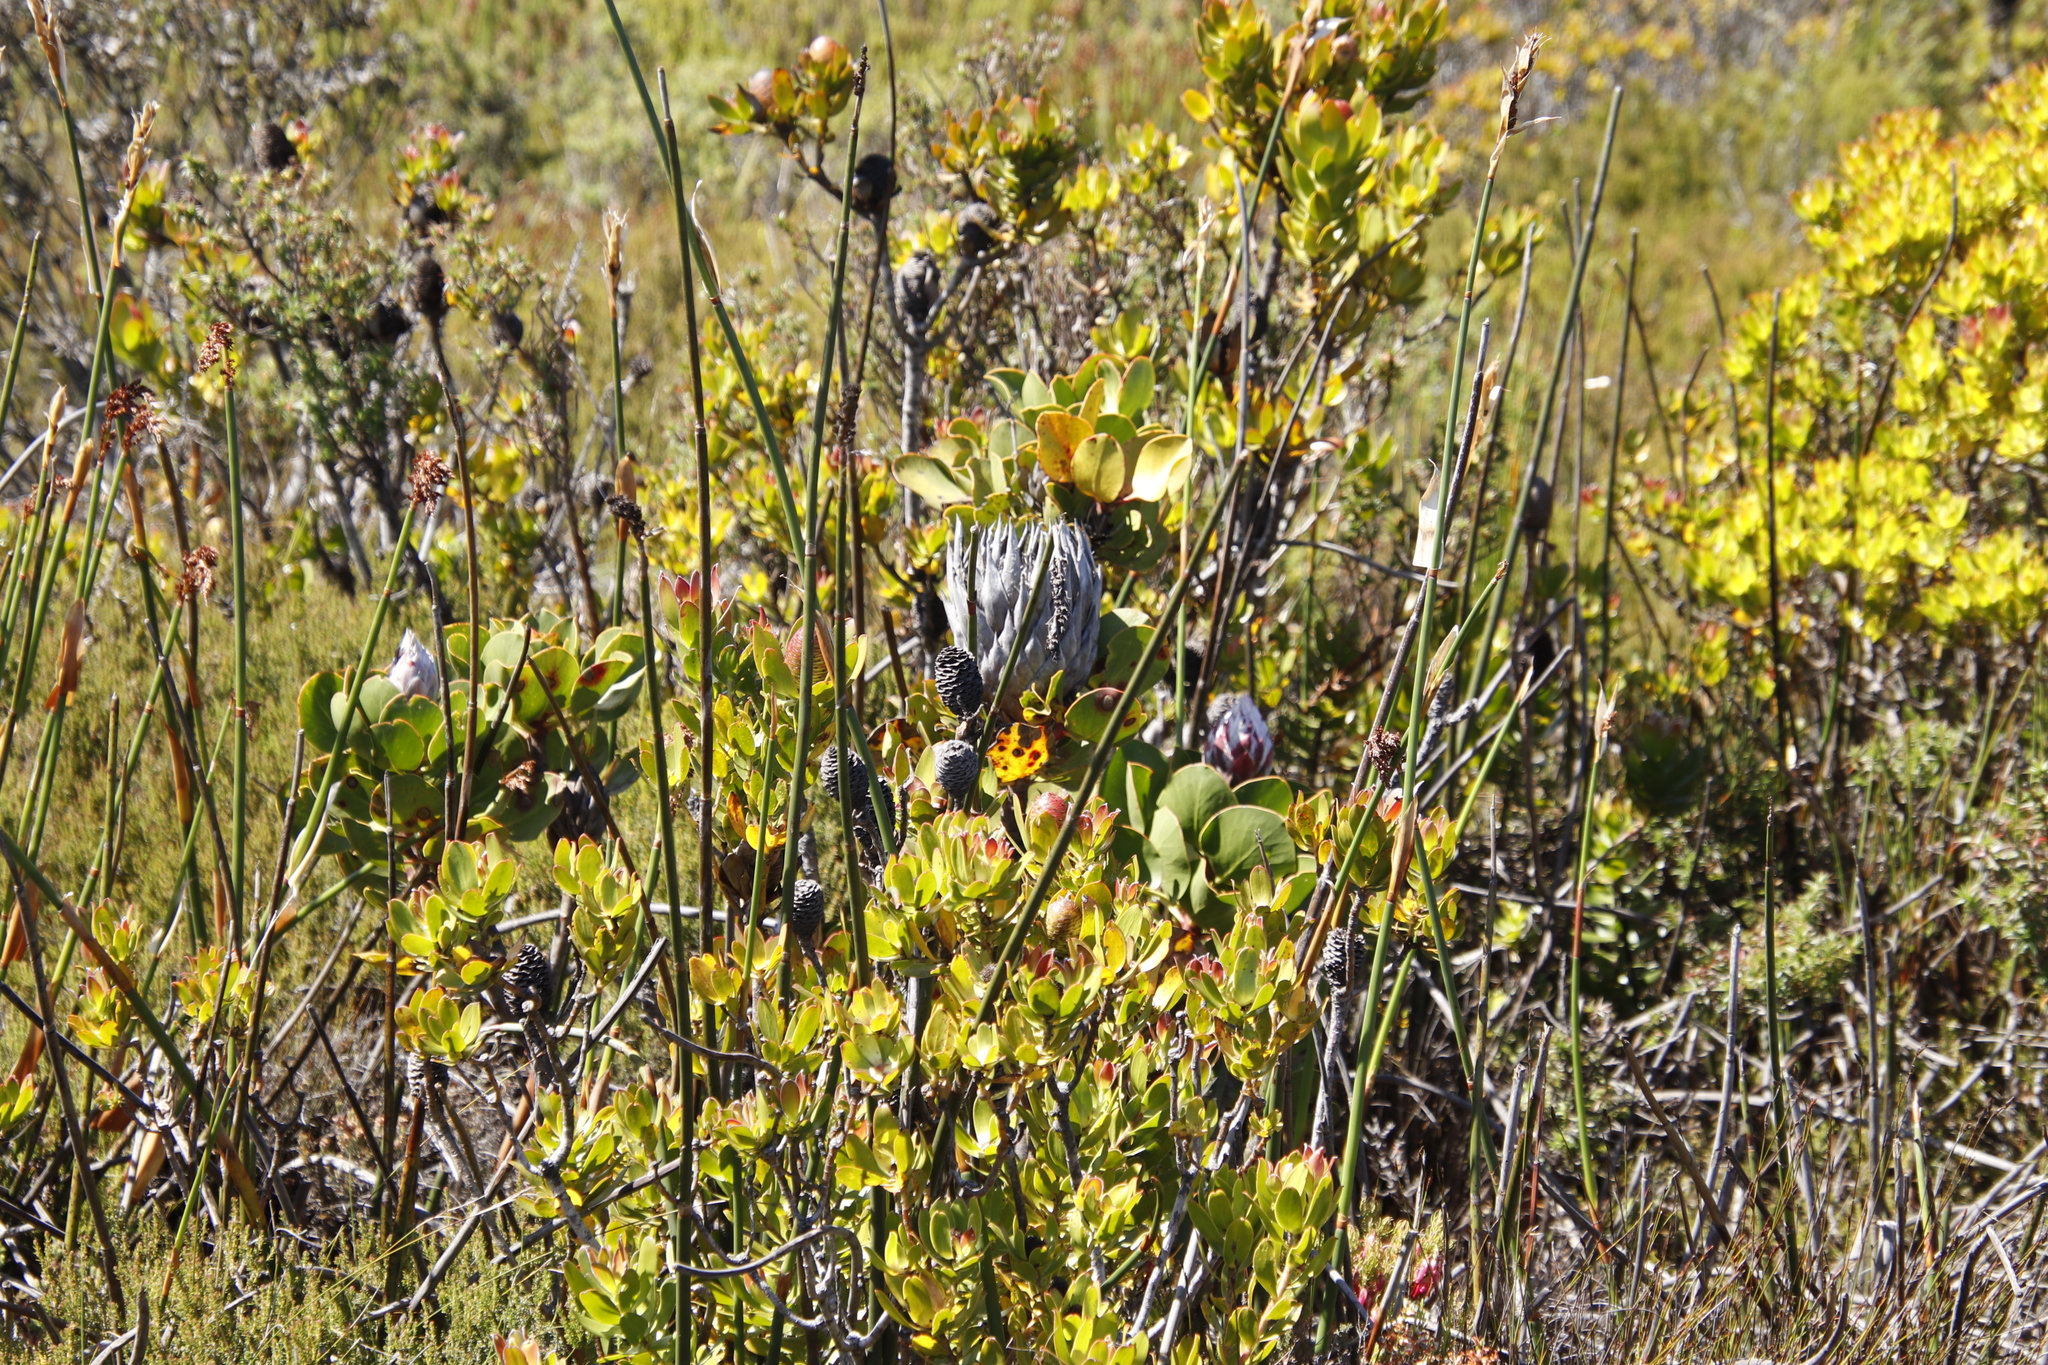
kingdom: Plantae
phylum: Tracheophyta
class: Magnoliopsida
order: Proteales
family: Proteaceae
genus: Leucadendron
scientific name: Leucadendron strobilinum
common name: Mountain rose
